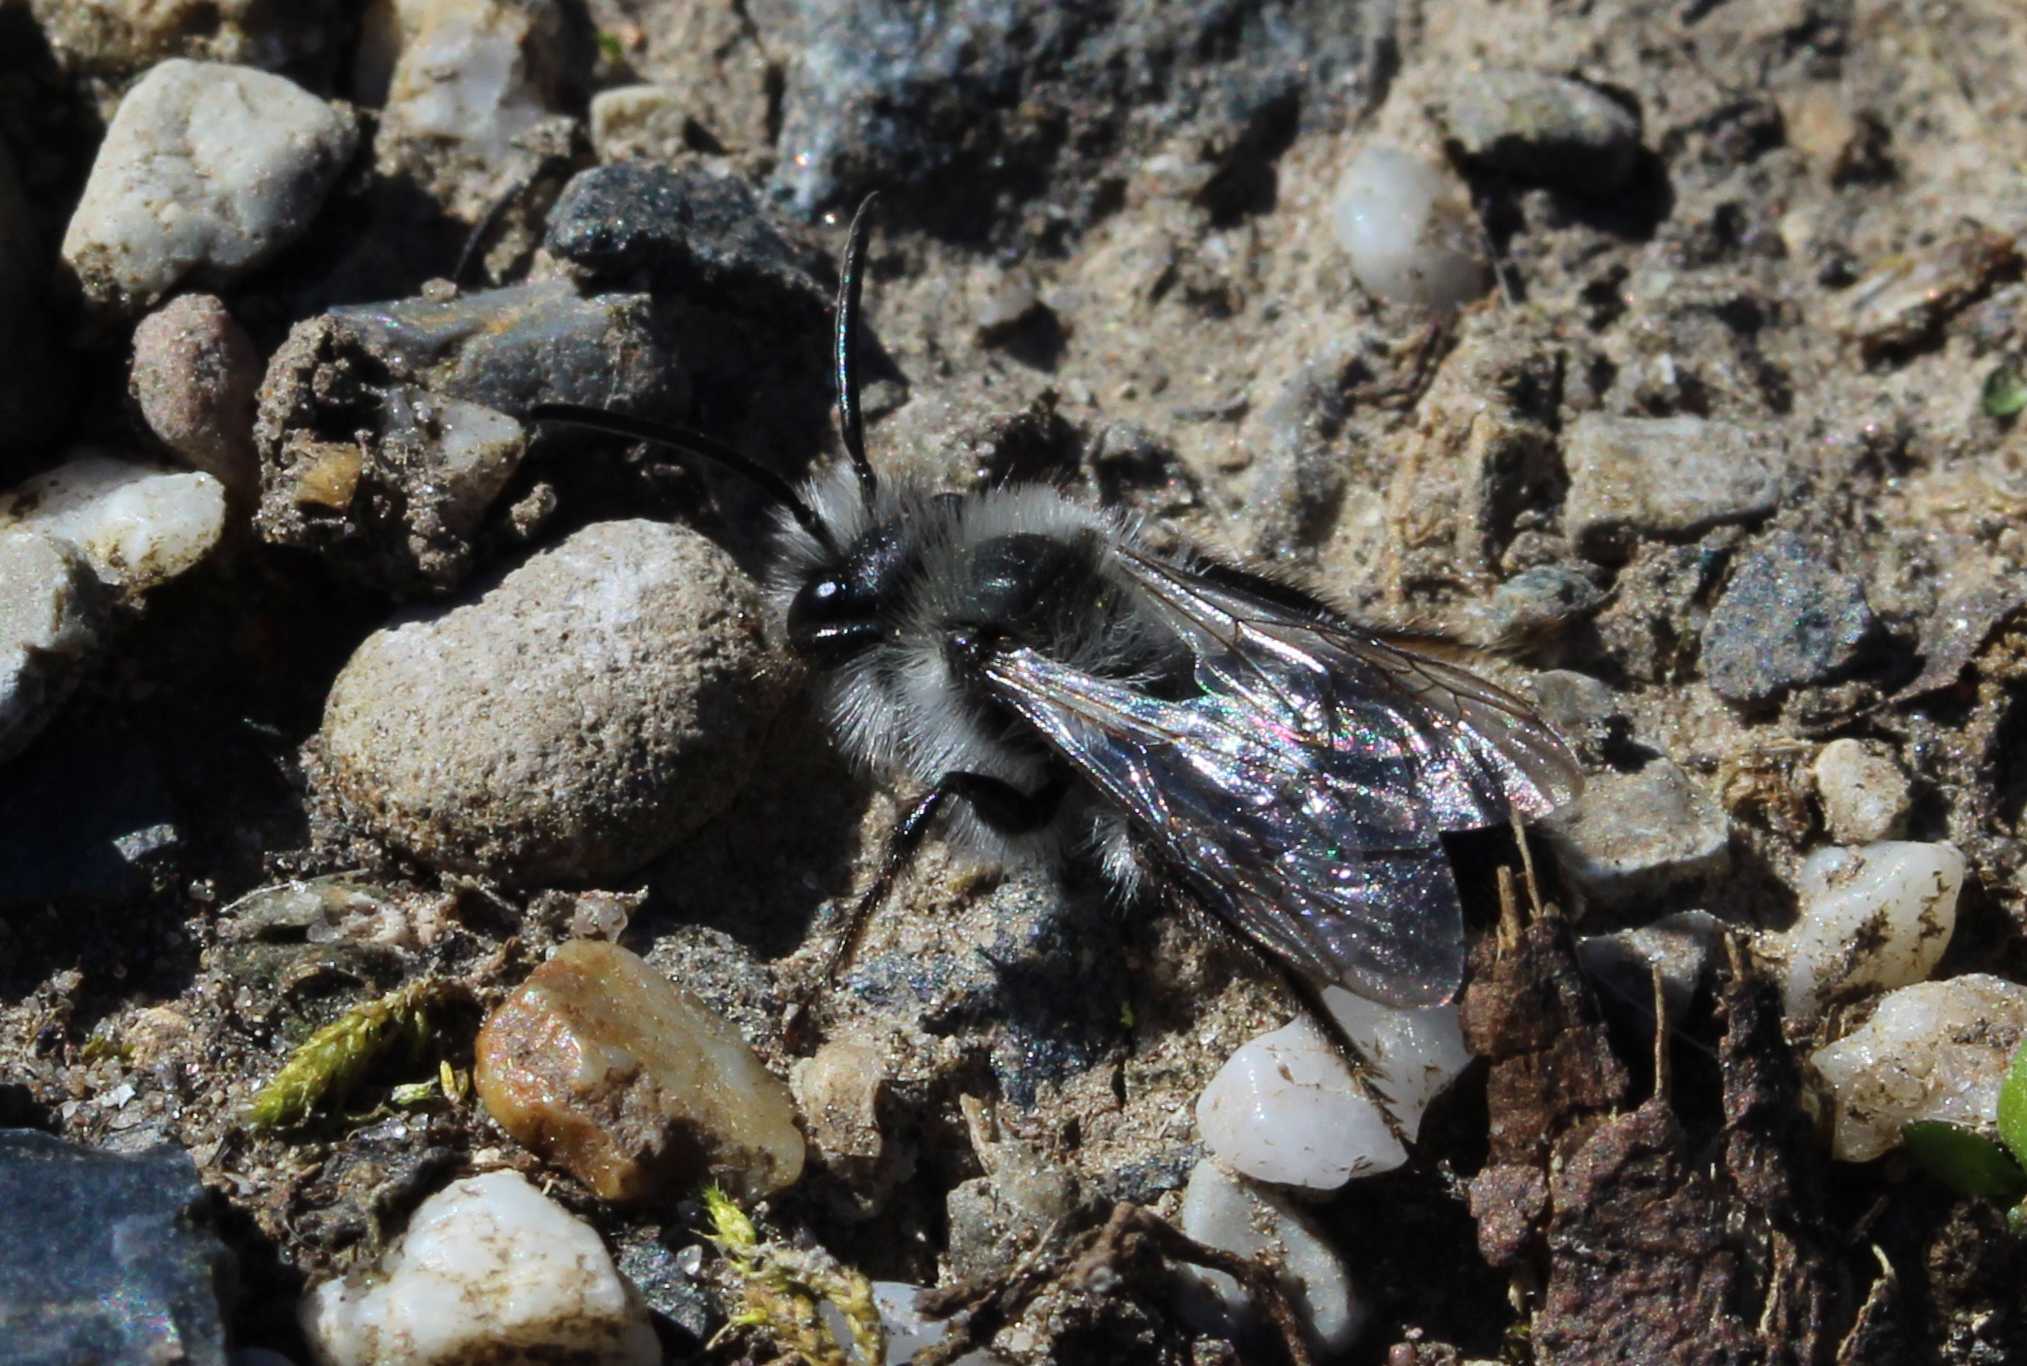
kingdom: Animalia
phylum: Arthropoda
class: Insecta
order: Hymenoptera
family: Andrenidae
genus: Andrena
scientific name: Andrena cineraria
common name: Ashy mining bee
